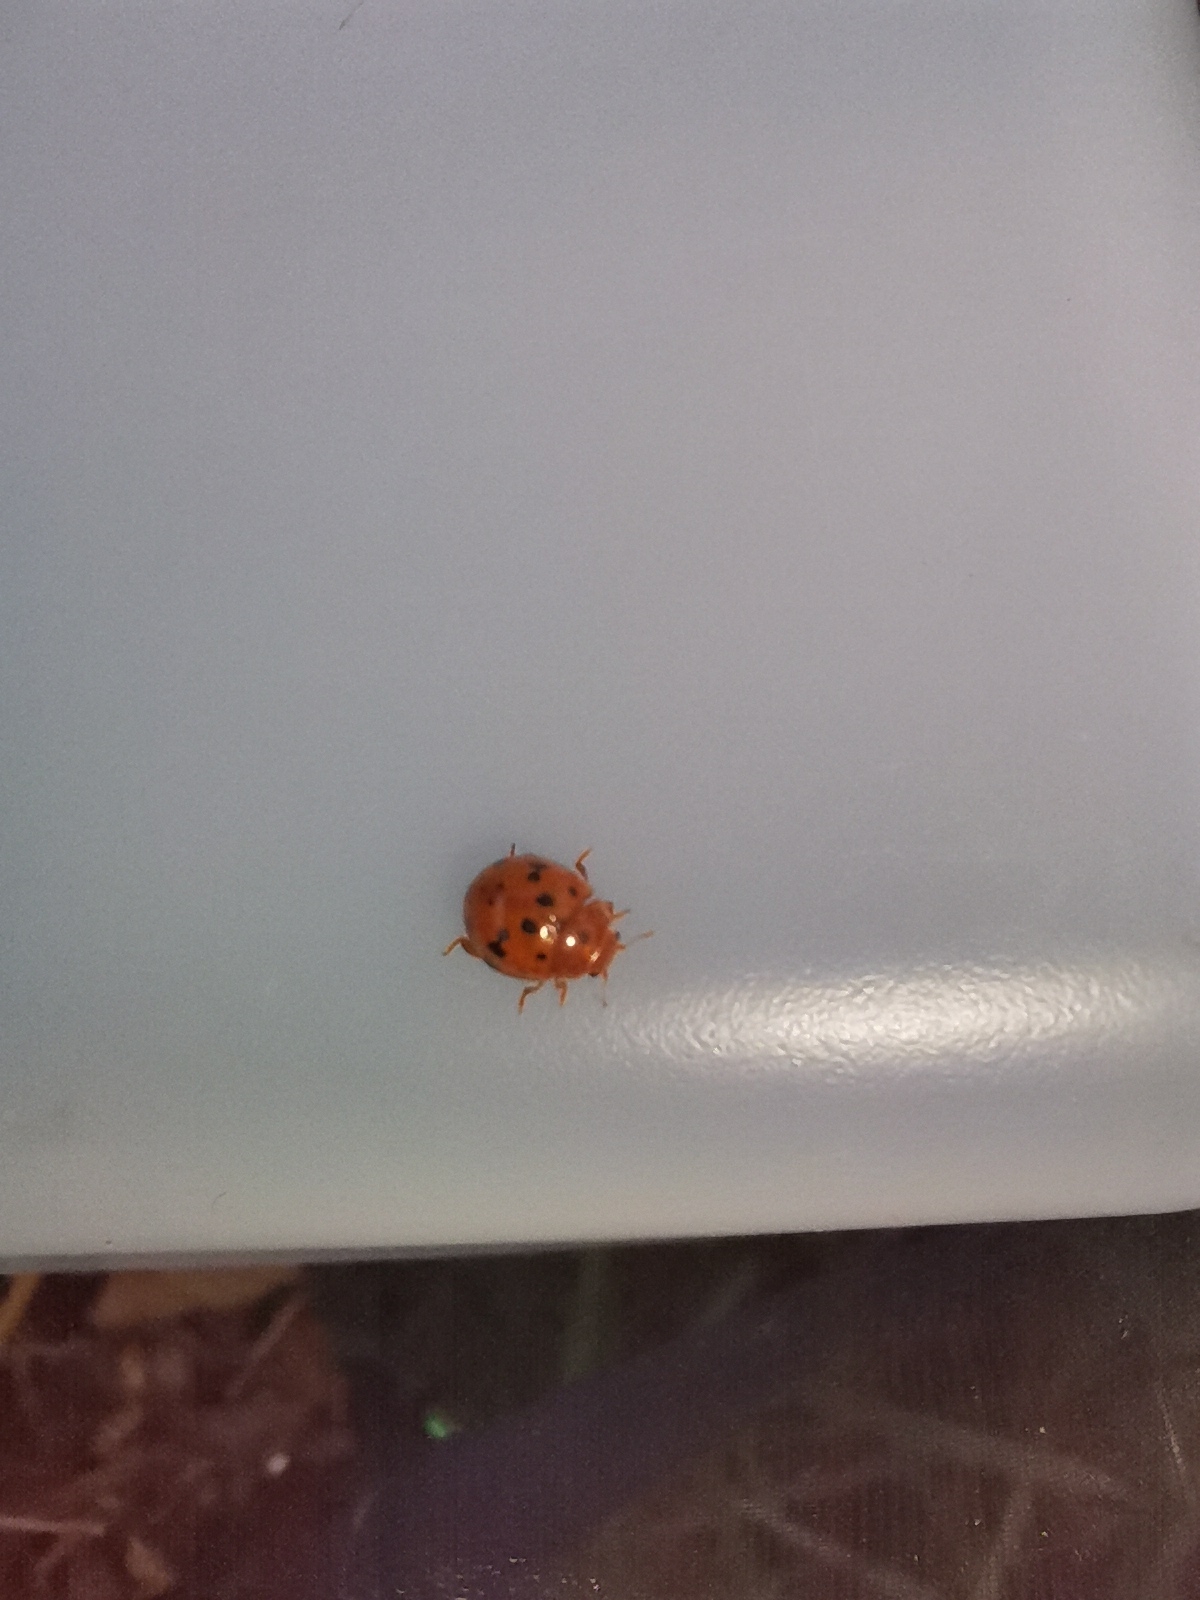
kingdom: Animalia
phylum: Arthropoda
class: Insecta
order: Coleoptera
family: Coccinellidae
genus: Subcoccinella
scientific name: Subcoccinella vigintiquatuorpunctata
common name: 24-spot ladybird
